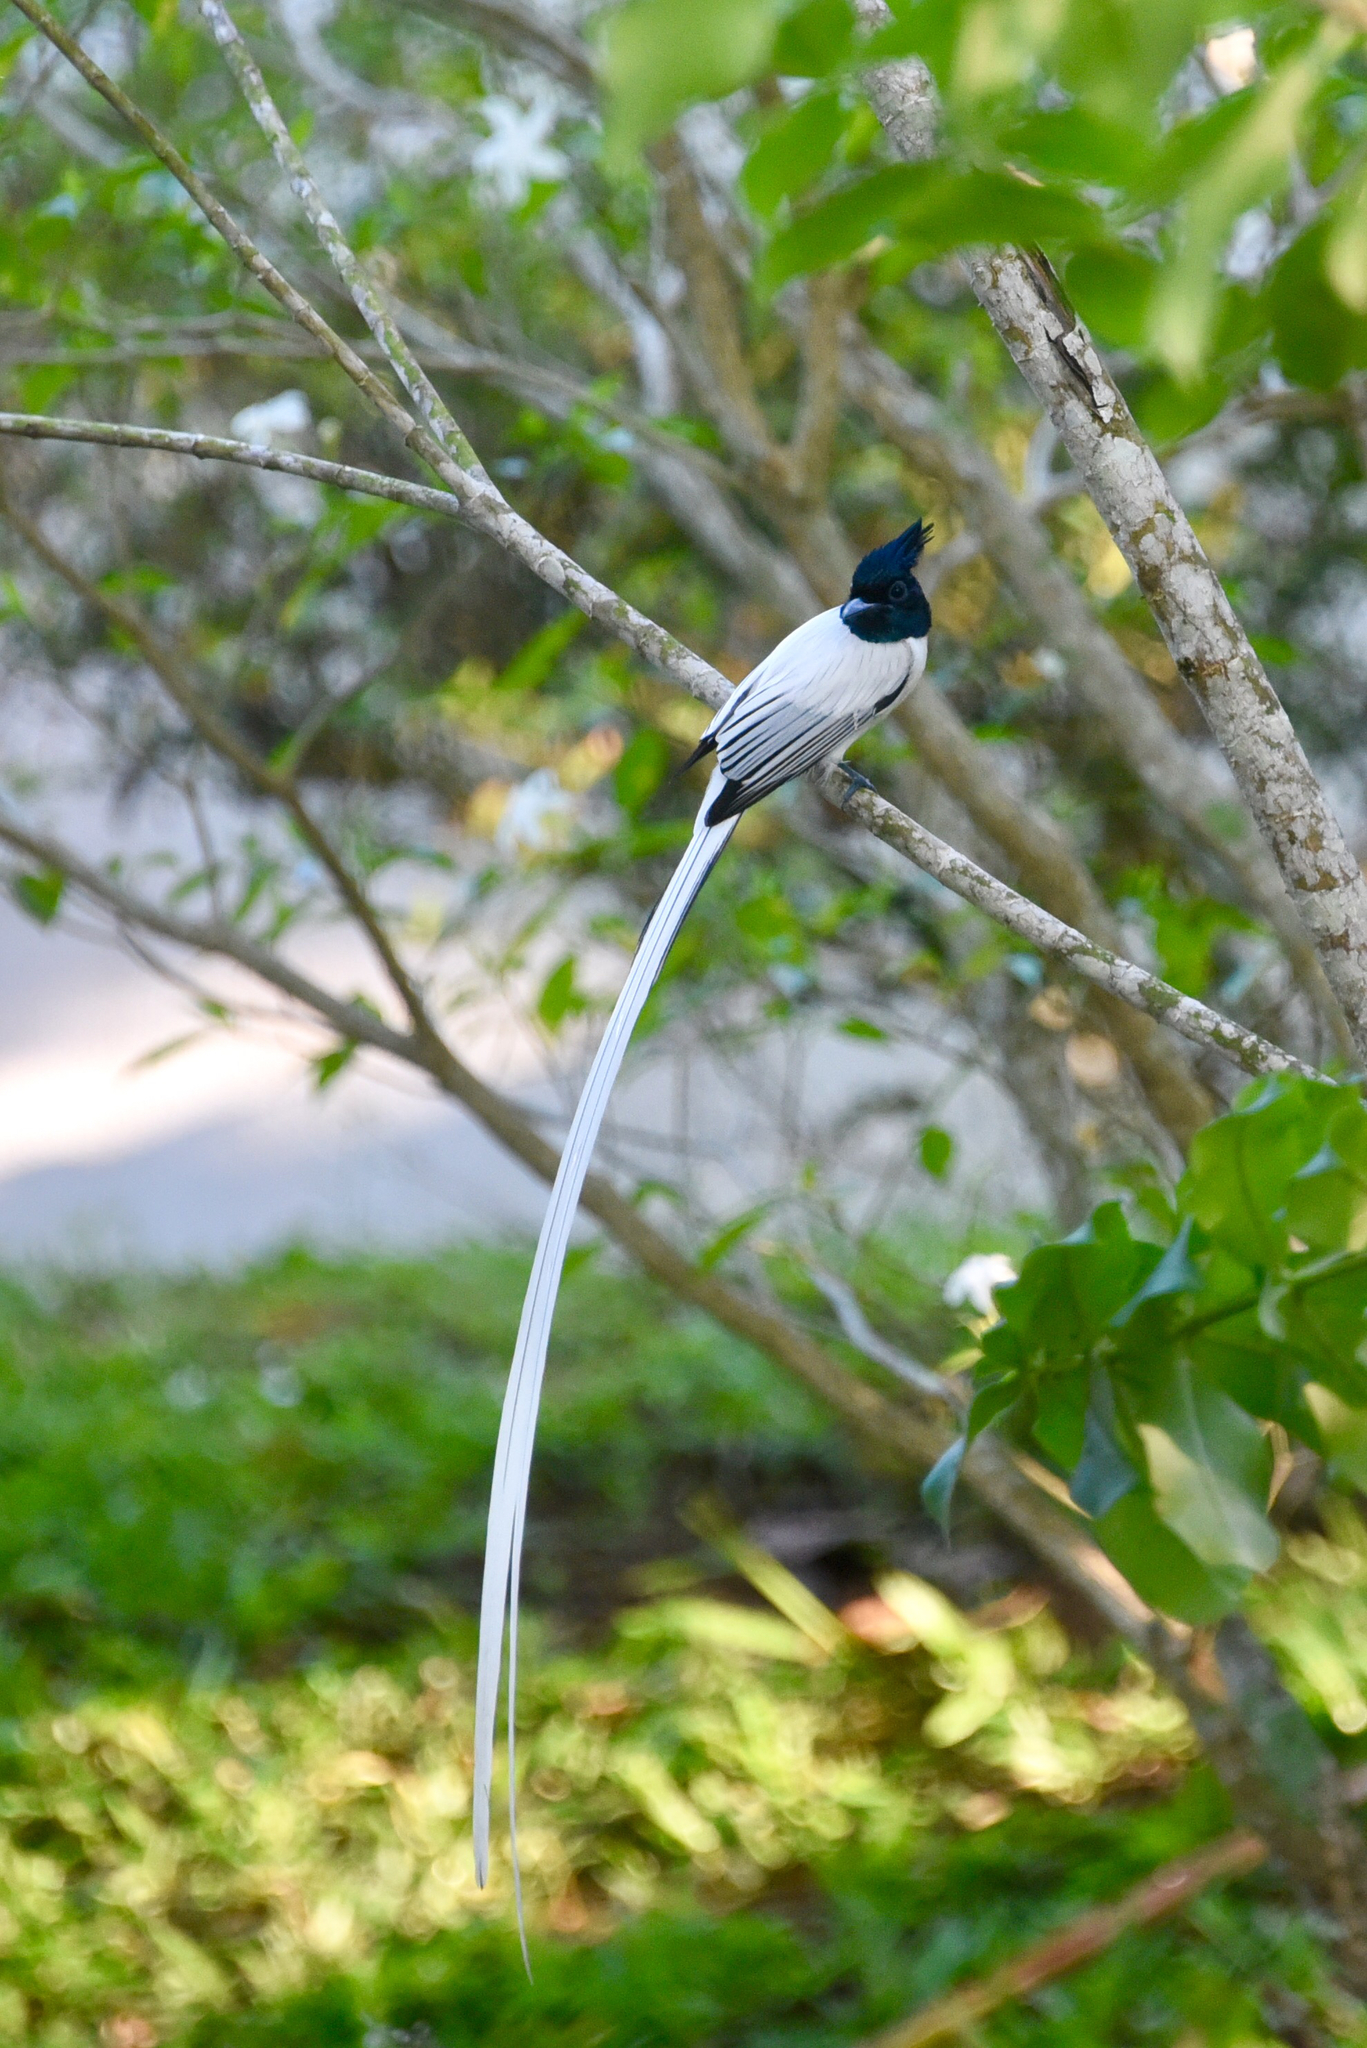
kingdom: Animalia
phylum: Chordata
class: Aves
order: Passeriformes
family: Monarchidae
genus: Terpsiphone
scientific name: Terpsiphone paradisi
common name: Indian paradise flycatcher
